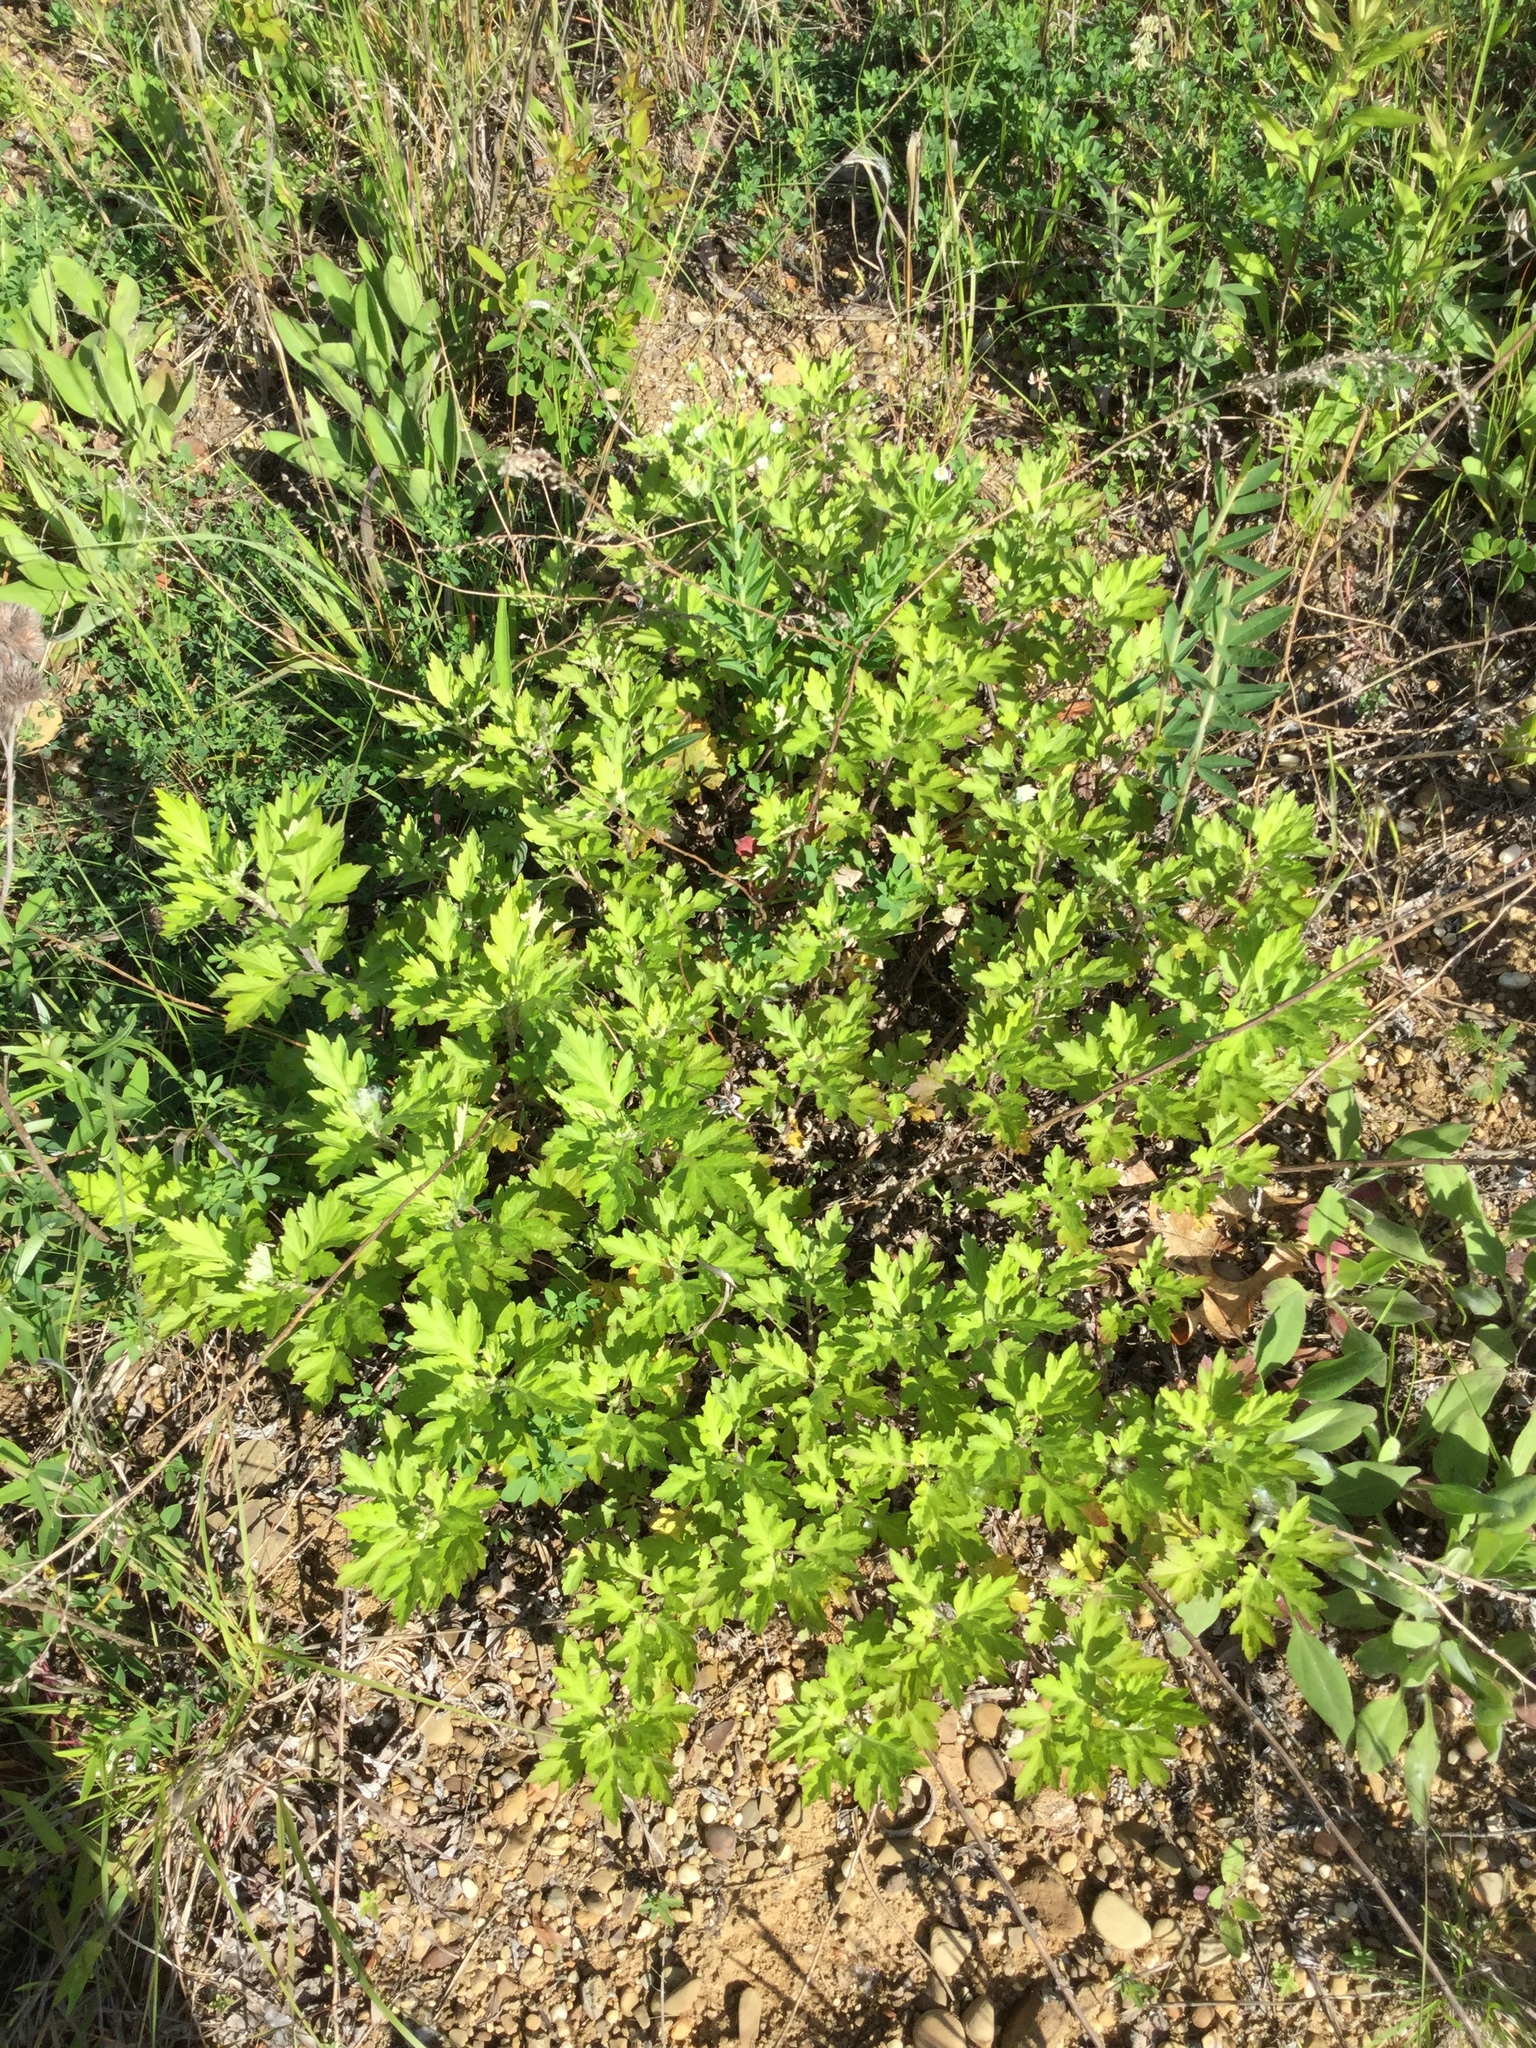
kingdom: Plantae
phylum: Tracheophyta
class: Magnoliopsida
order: Asterales
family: Asteraceae
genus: Artemisia
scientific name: Artemisia vulgaris
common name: Mugwort
